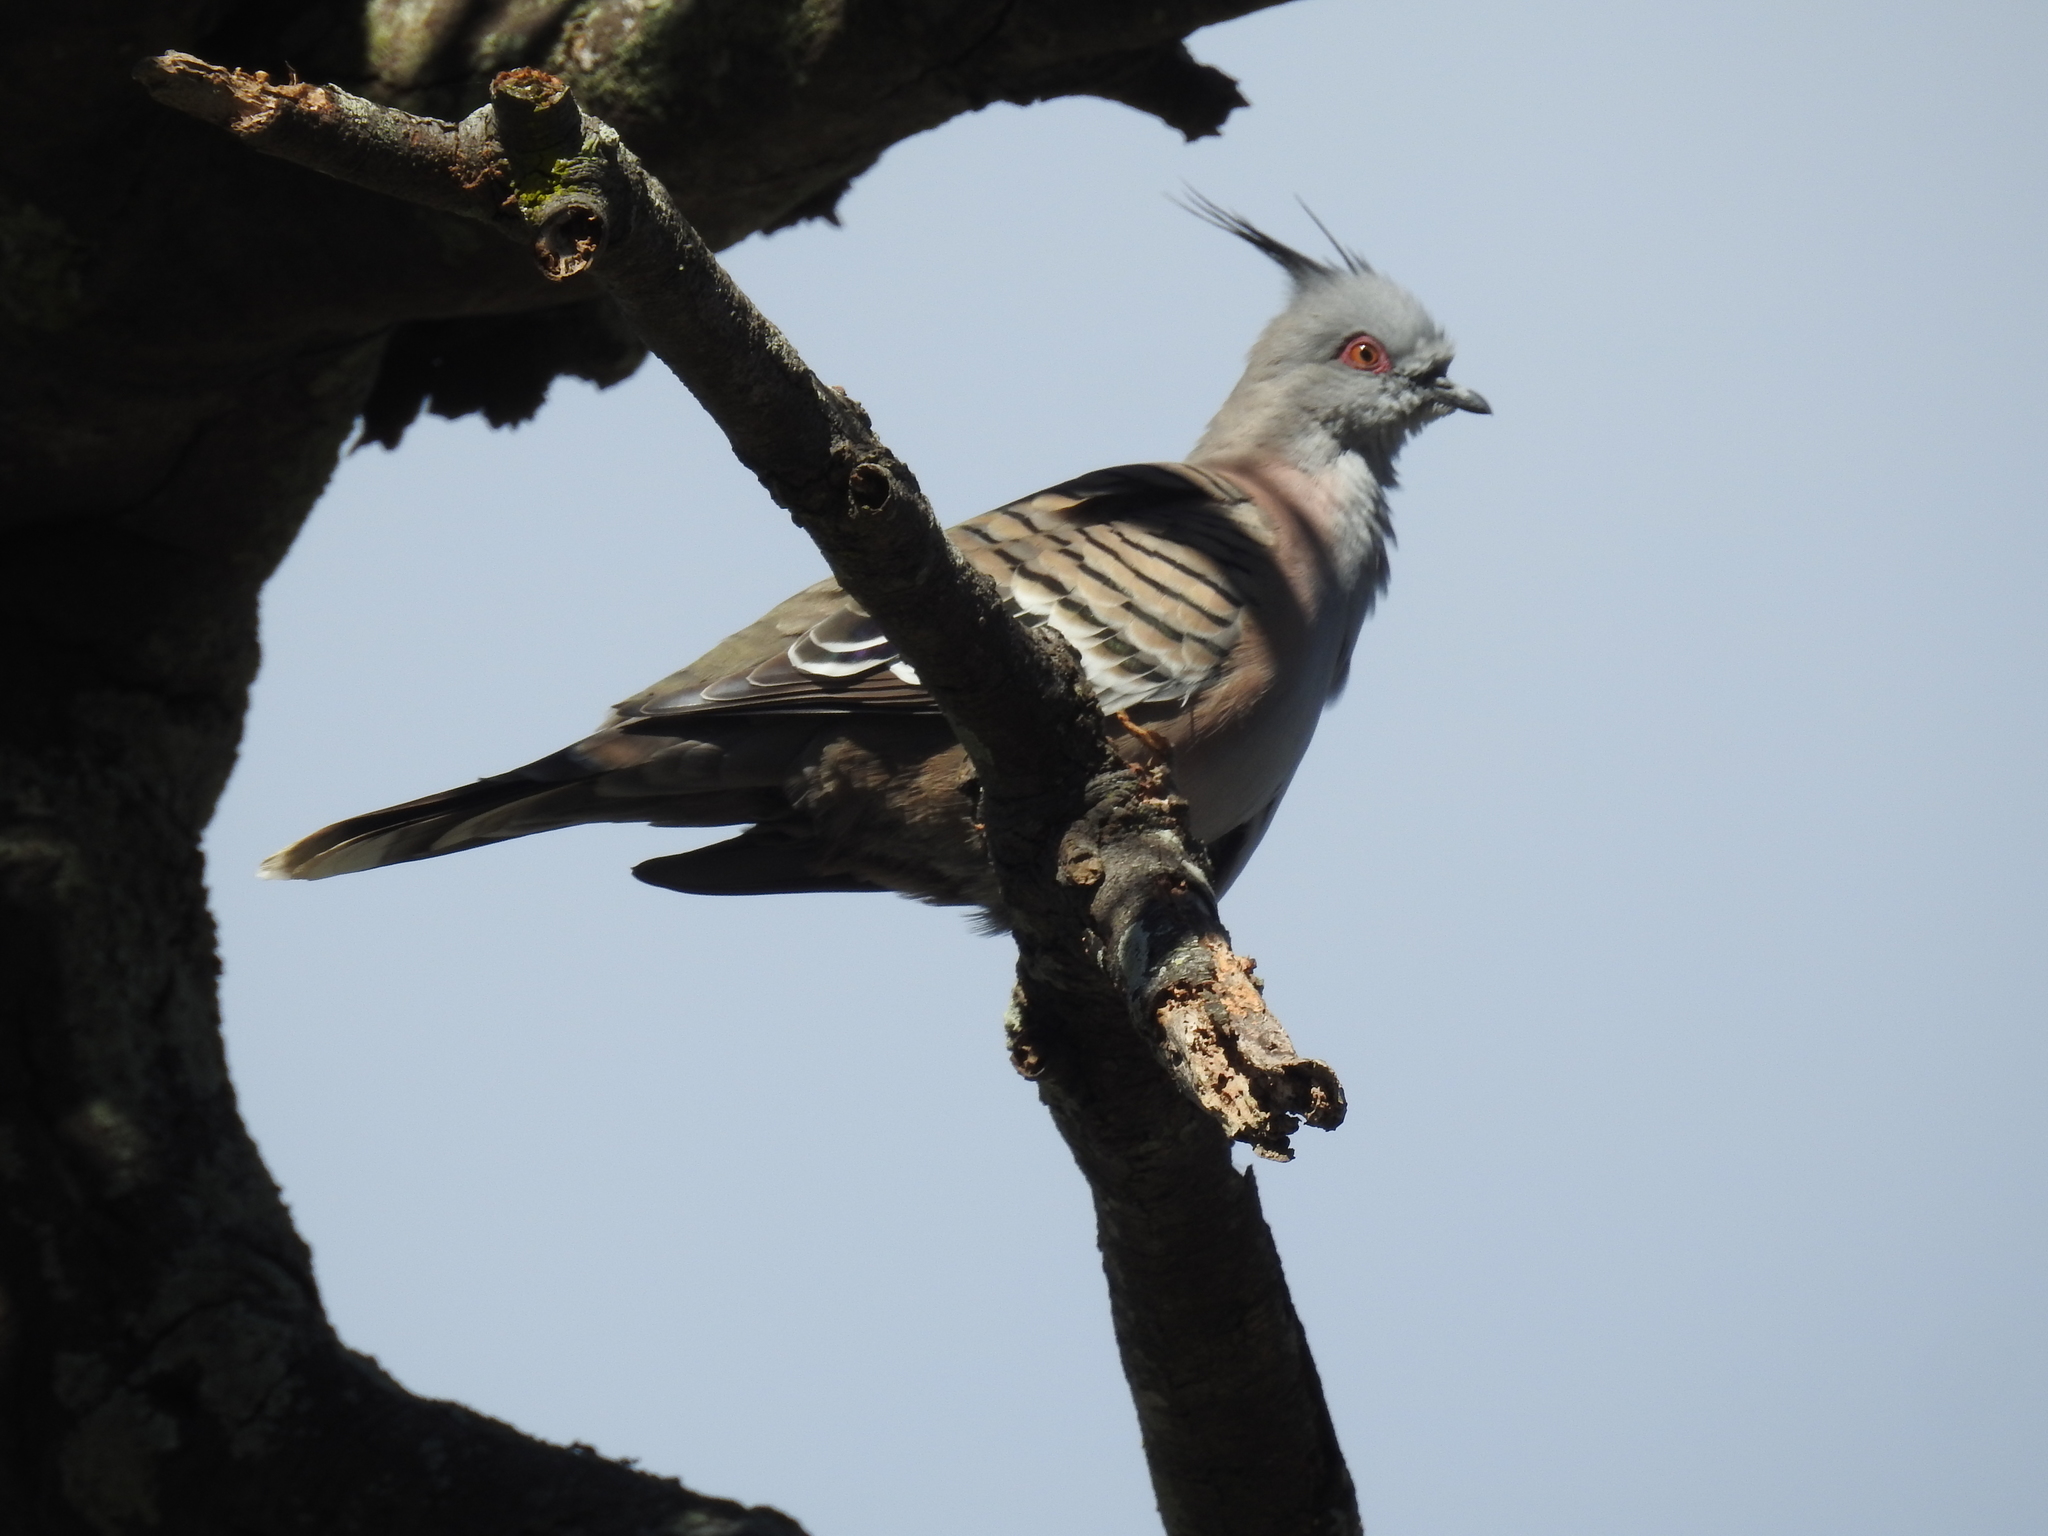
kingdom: Animalia
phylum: Chordata
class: Aves
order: Columbiformes
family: Columbidae
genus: Ocyphaps
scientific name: Ocyphaps lophotes
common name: Crested pigeon
